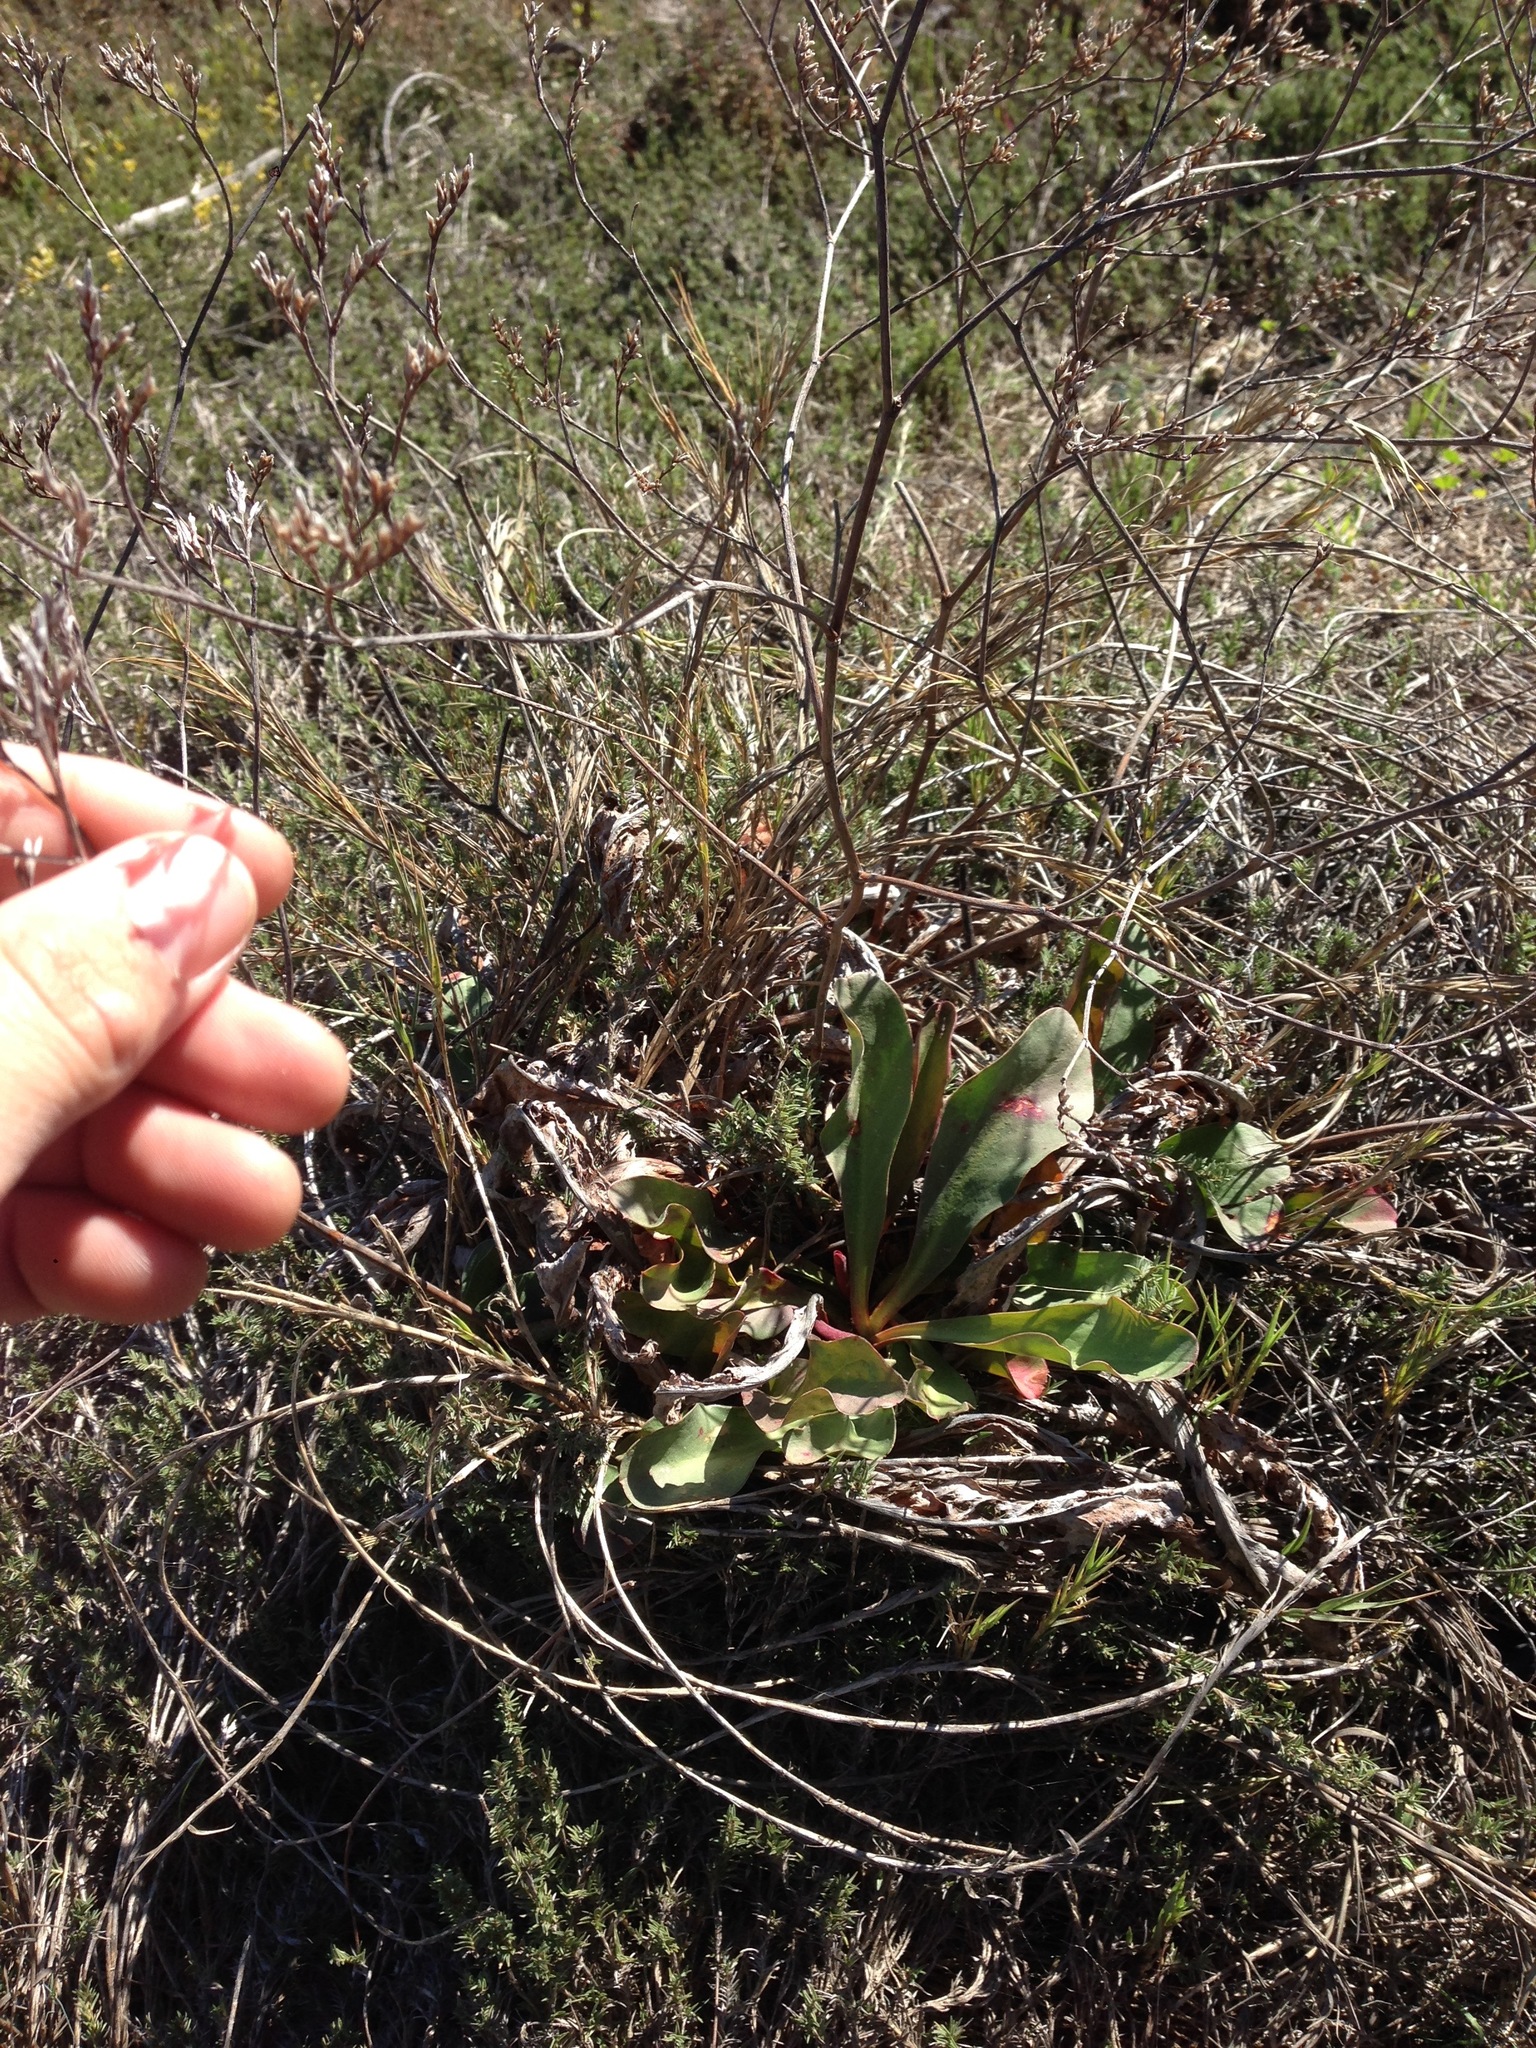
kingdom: Plantae
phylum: Tracheophyta
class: Magnoliopsida
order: Caryophyllales
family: Plumbaginaceae
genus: Limonium
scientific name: Limonium californicum
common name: Marsh-rosemary
